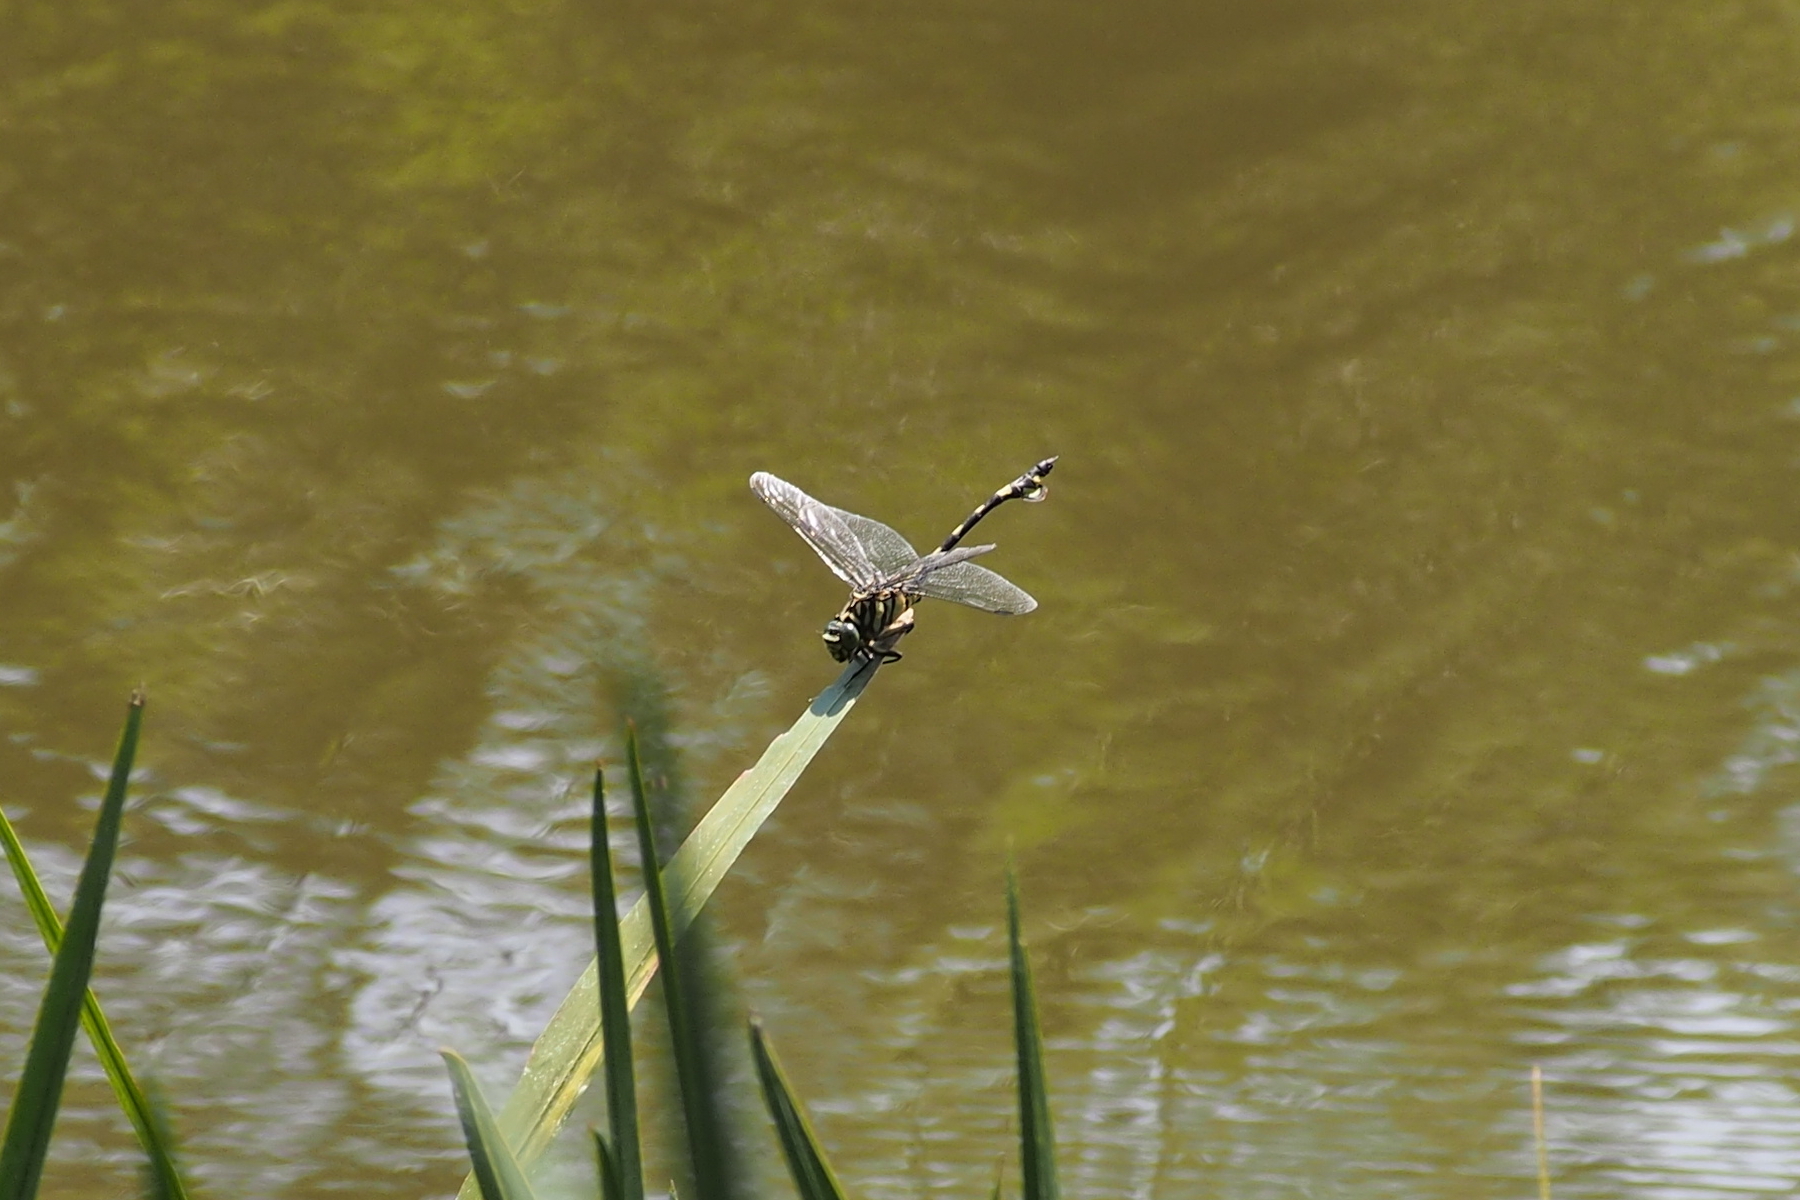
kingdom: Animalia
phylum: Arthropoda
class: Insecta
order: Odonata
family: Gomphidae
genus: Sinictinogomphus
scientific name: Sinictinogomphus clavatus
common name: Golden flangetail
